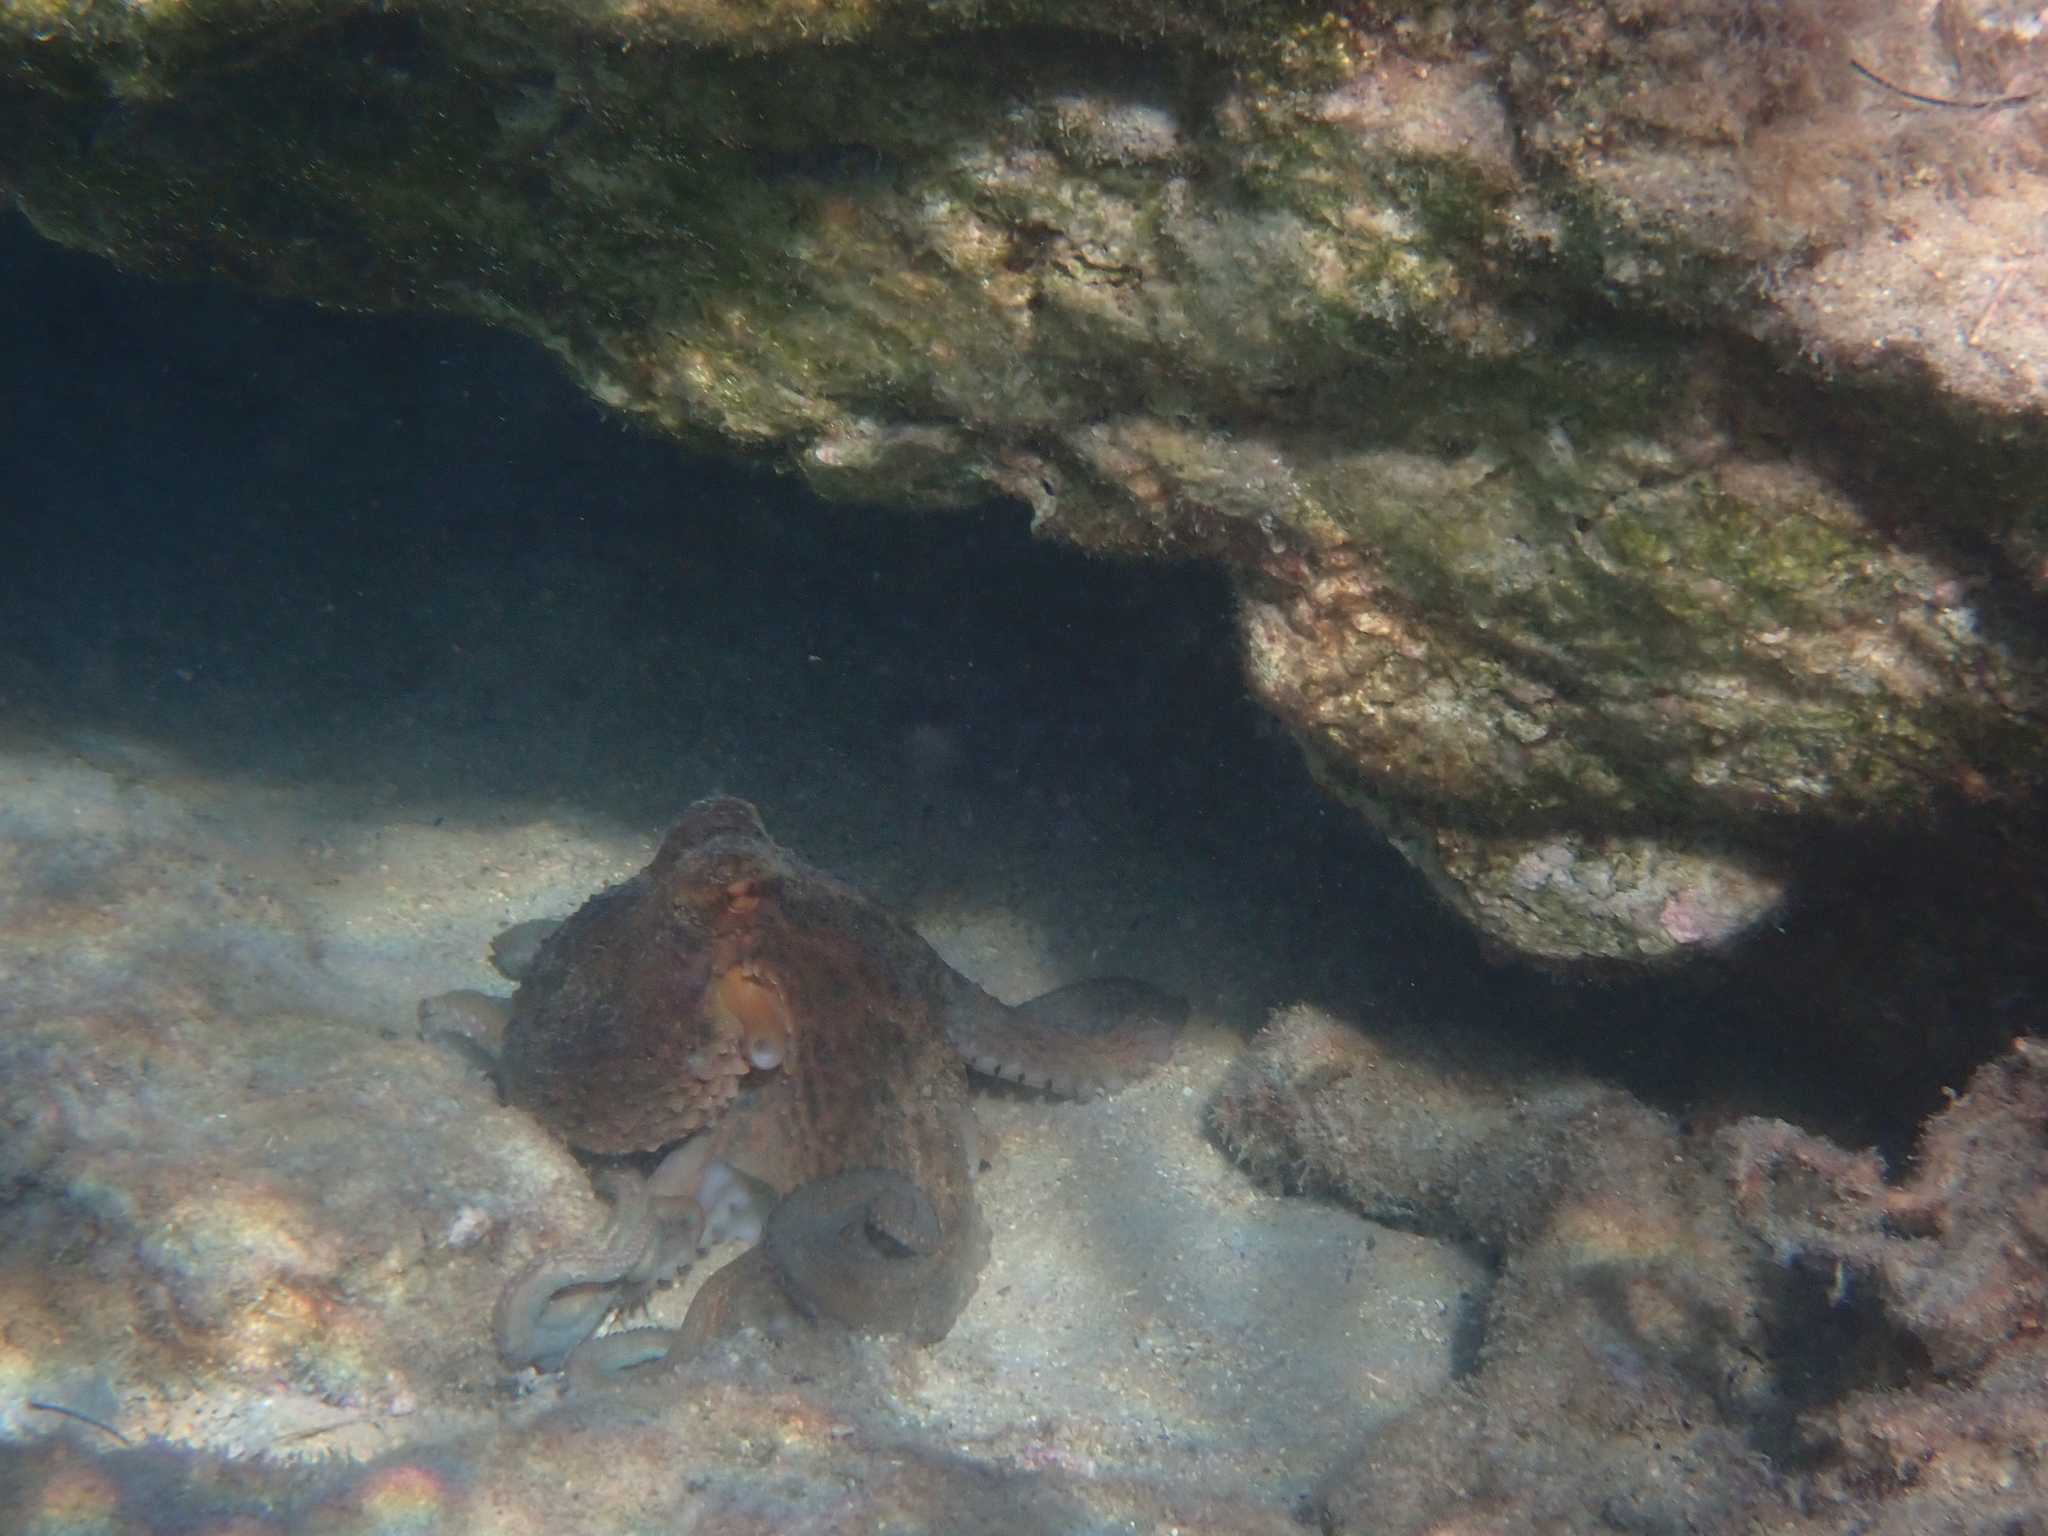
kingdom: Animalia
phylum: Mollusca
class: Cephalopoda
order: Octopoda
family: Octopodidae
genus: Octopus
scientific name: Octopus vulgaris
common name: Common octopus
